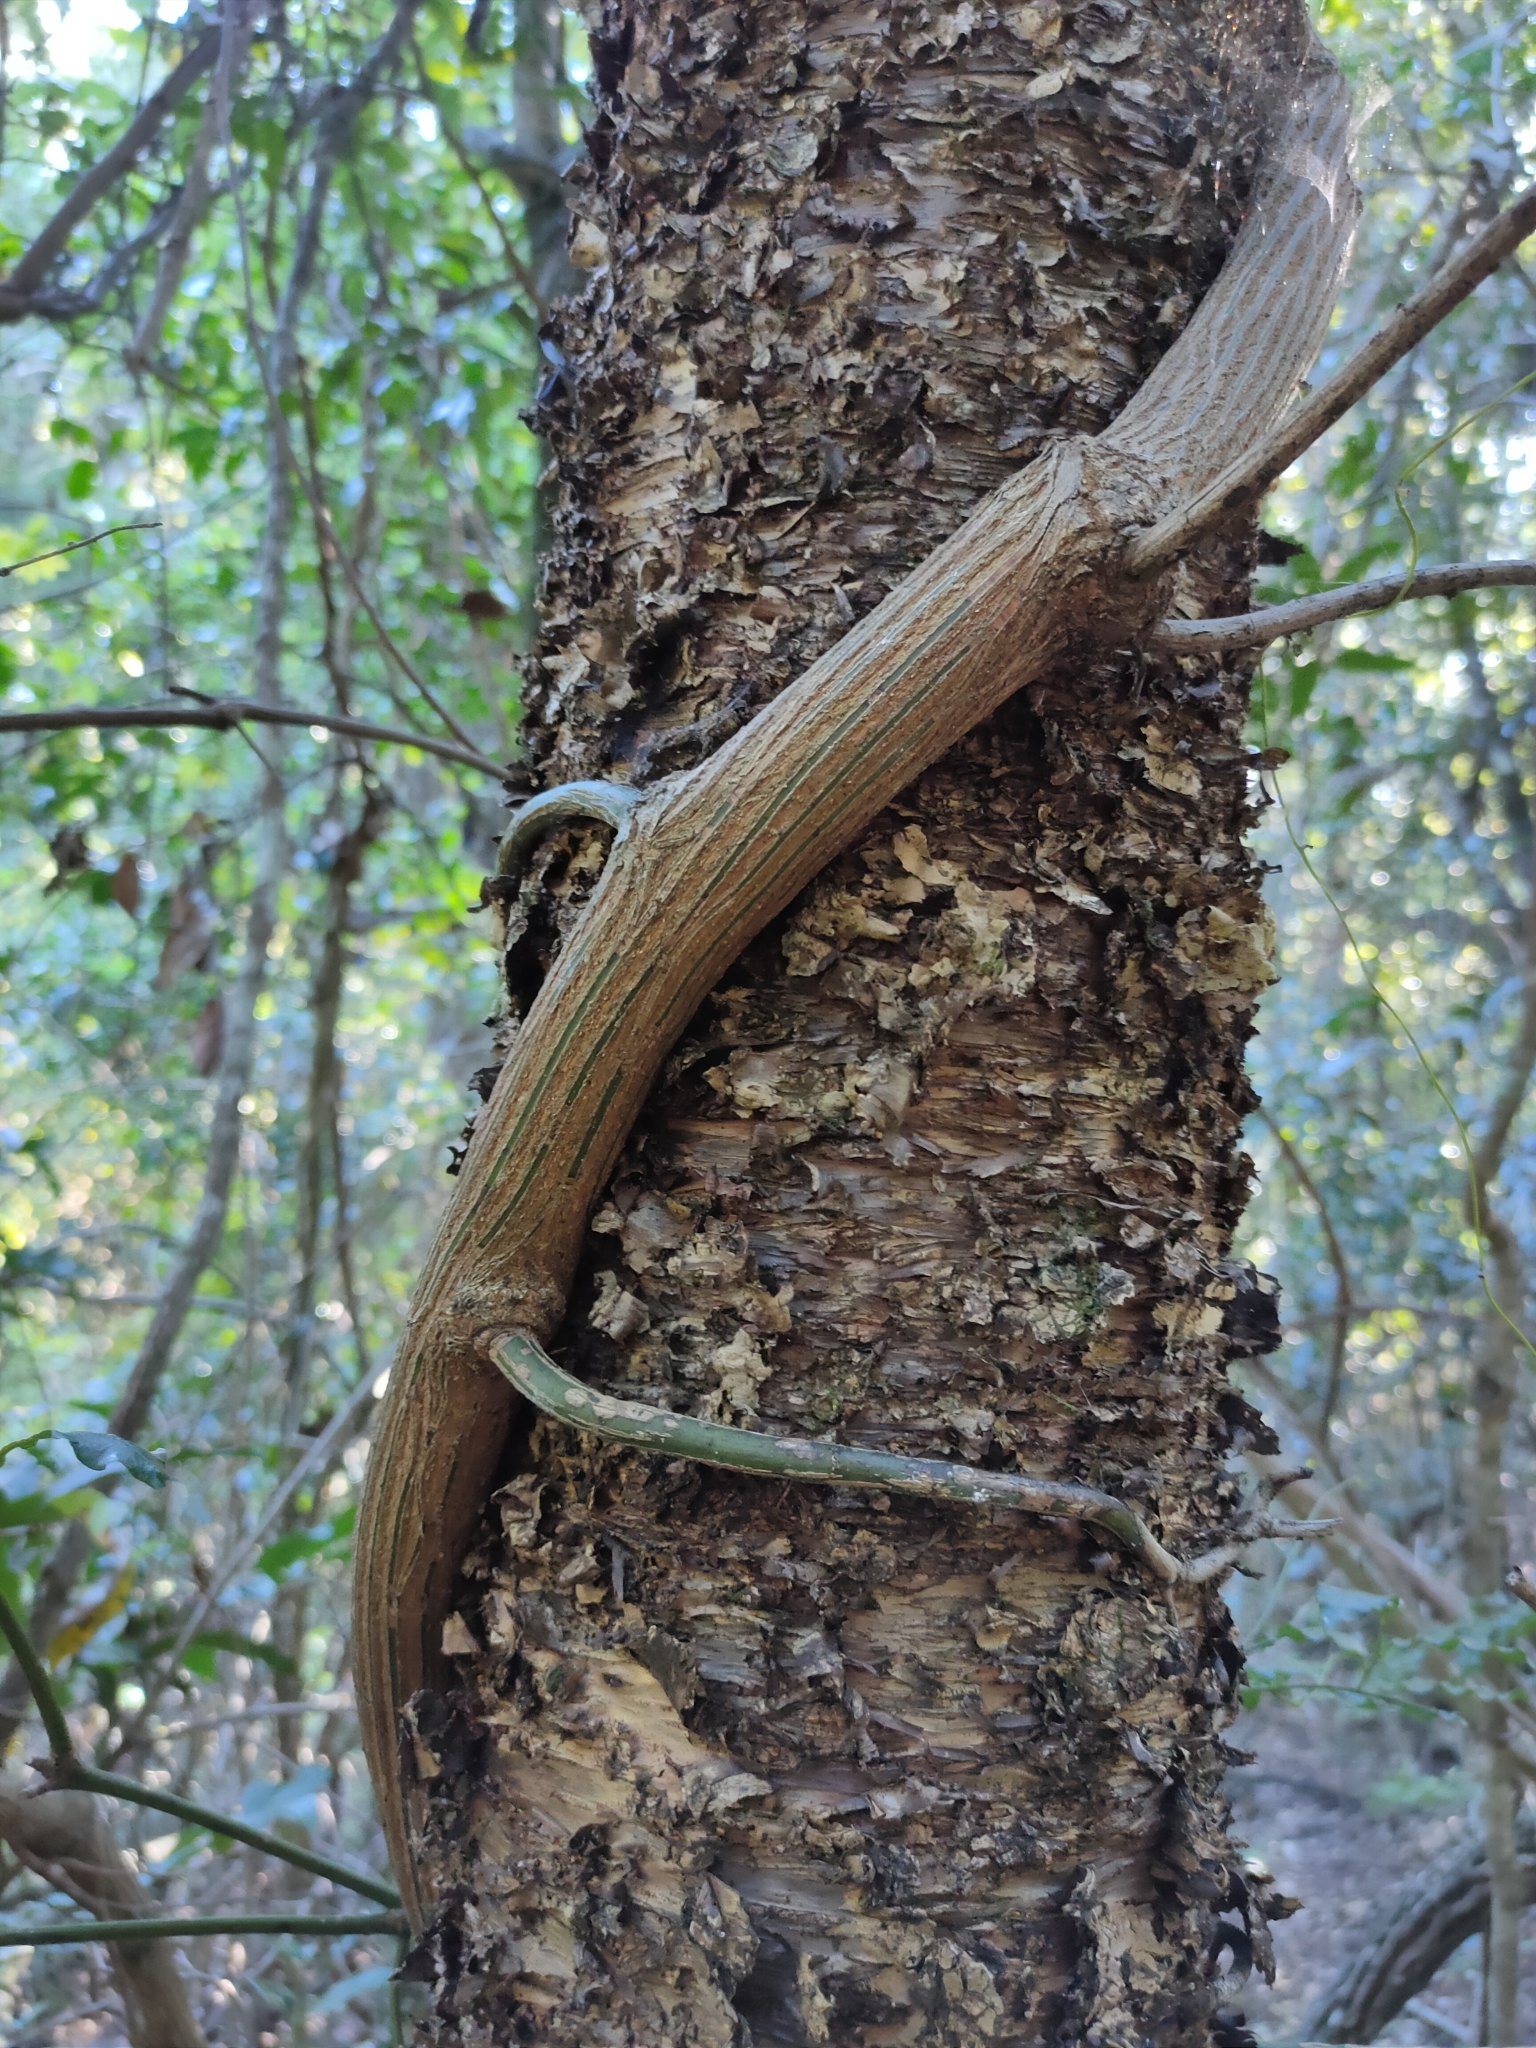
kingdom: Plantae
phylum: Tracheophyta
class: Magnoliopsida
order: Rosales
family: Rhamnaceae
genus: Ventilago
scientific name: Ventilago pubiflora
